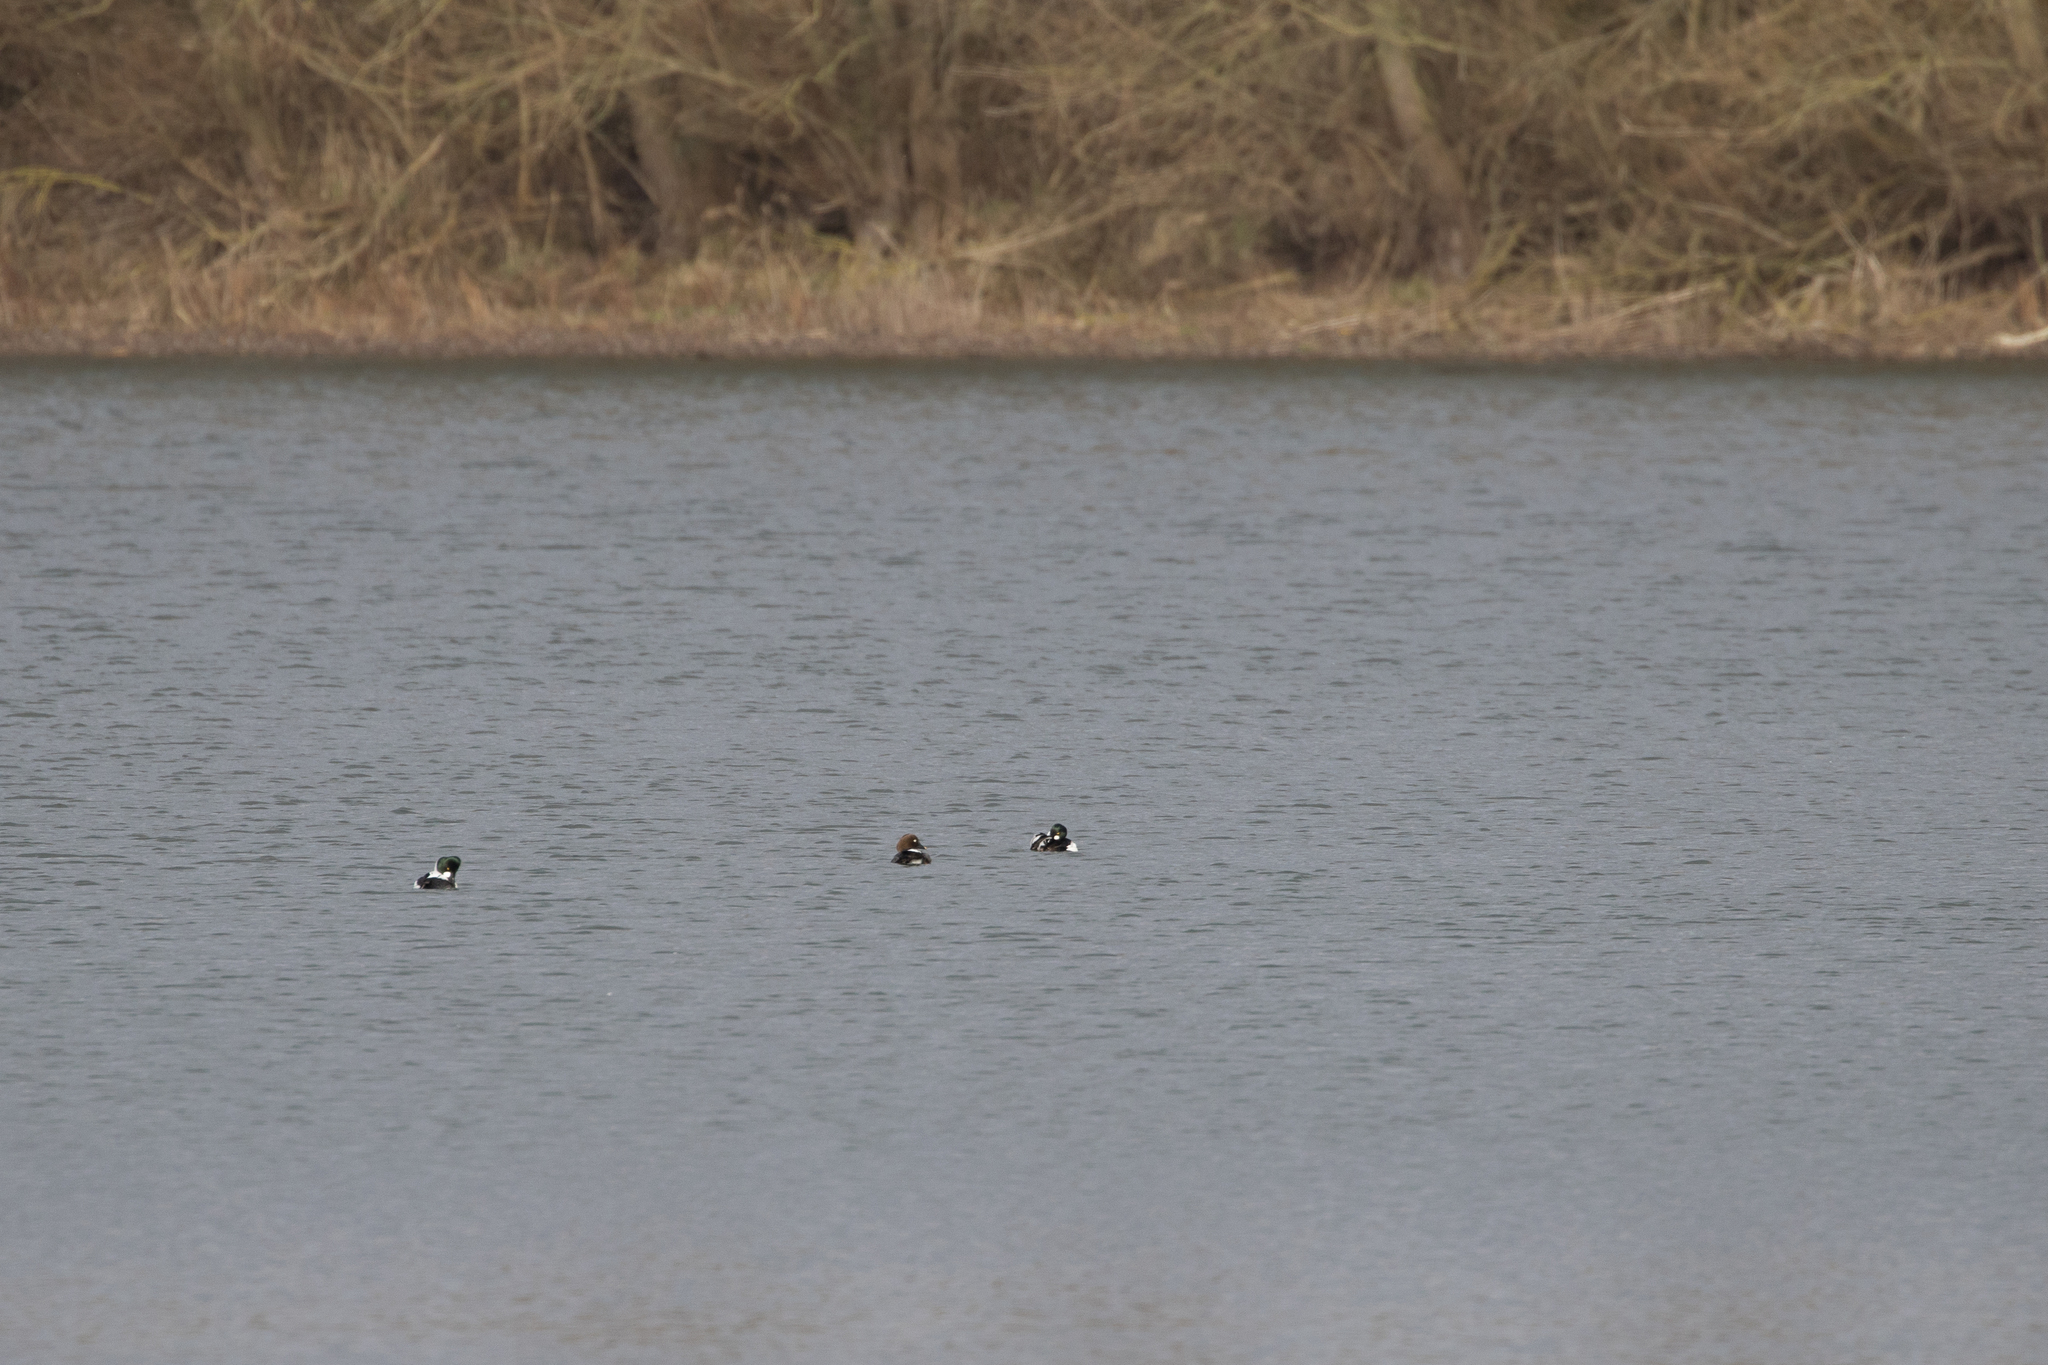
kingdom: Animalia
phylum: Chordata
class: Aves
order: Anseriformes
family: Anatidae
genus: Bucephala
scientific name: Bucephala clangula
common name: Common goldeneye
